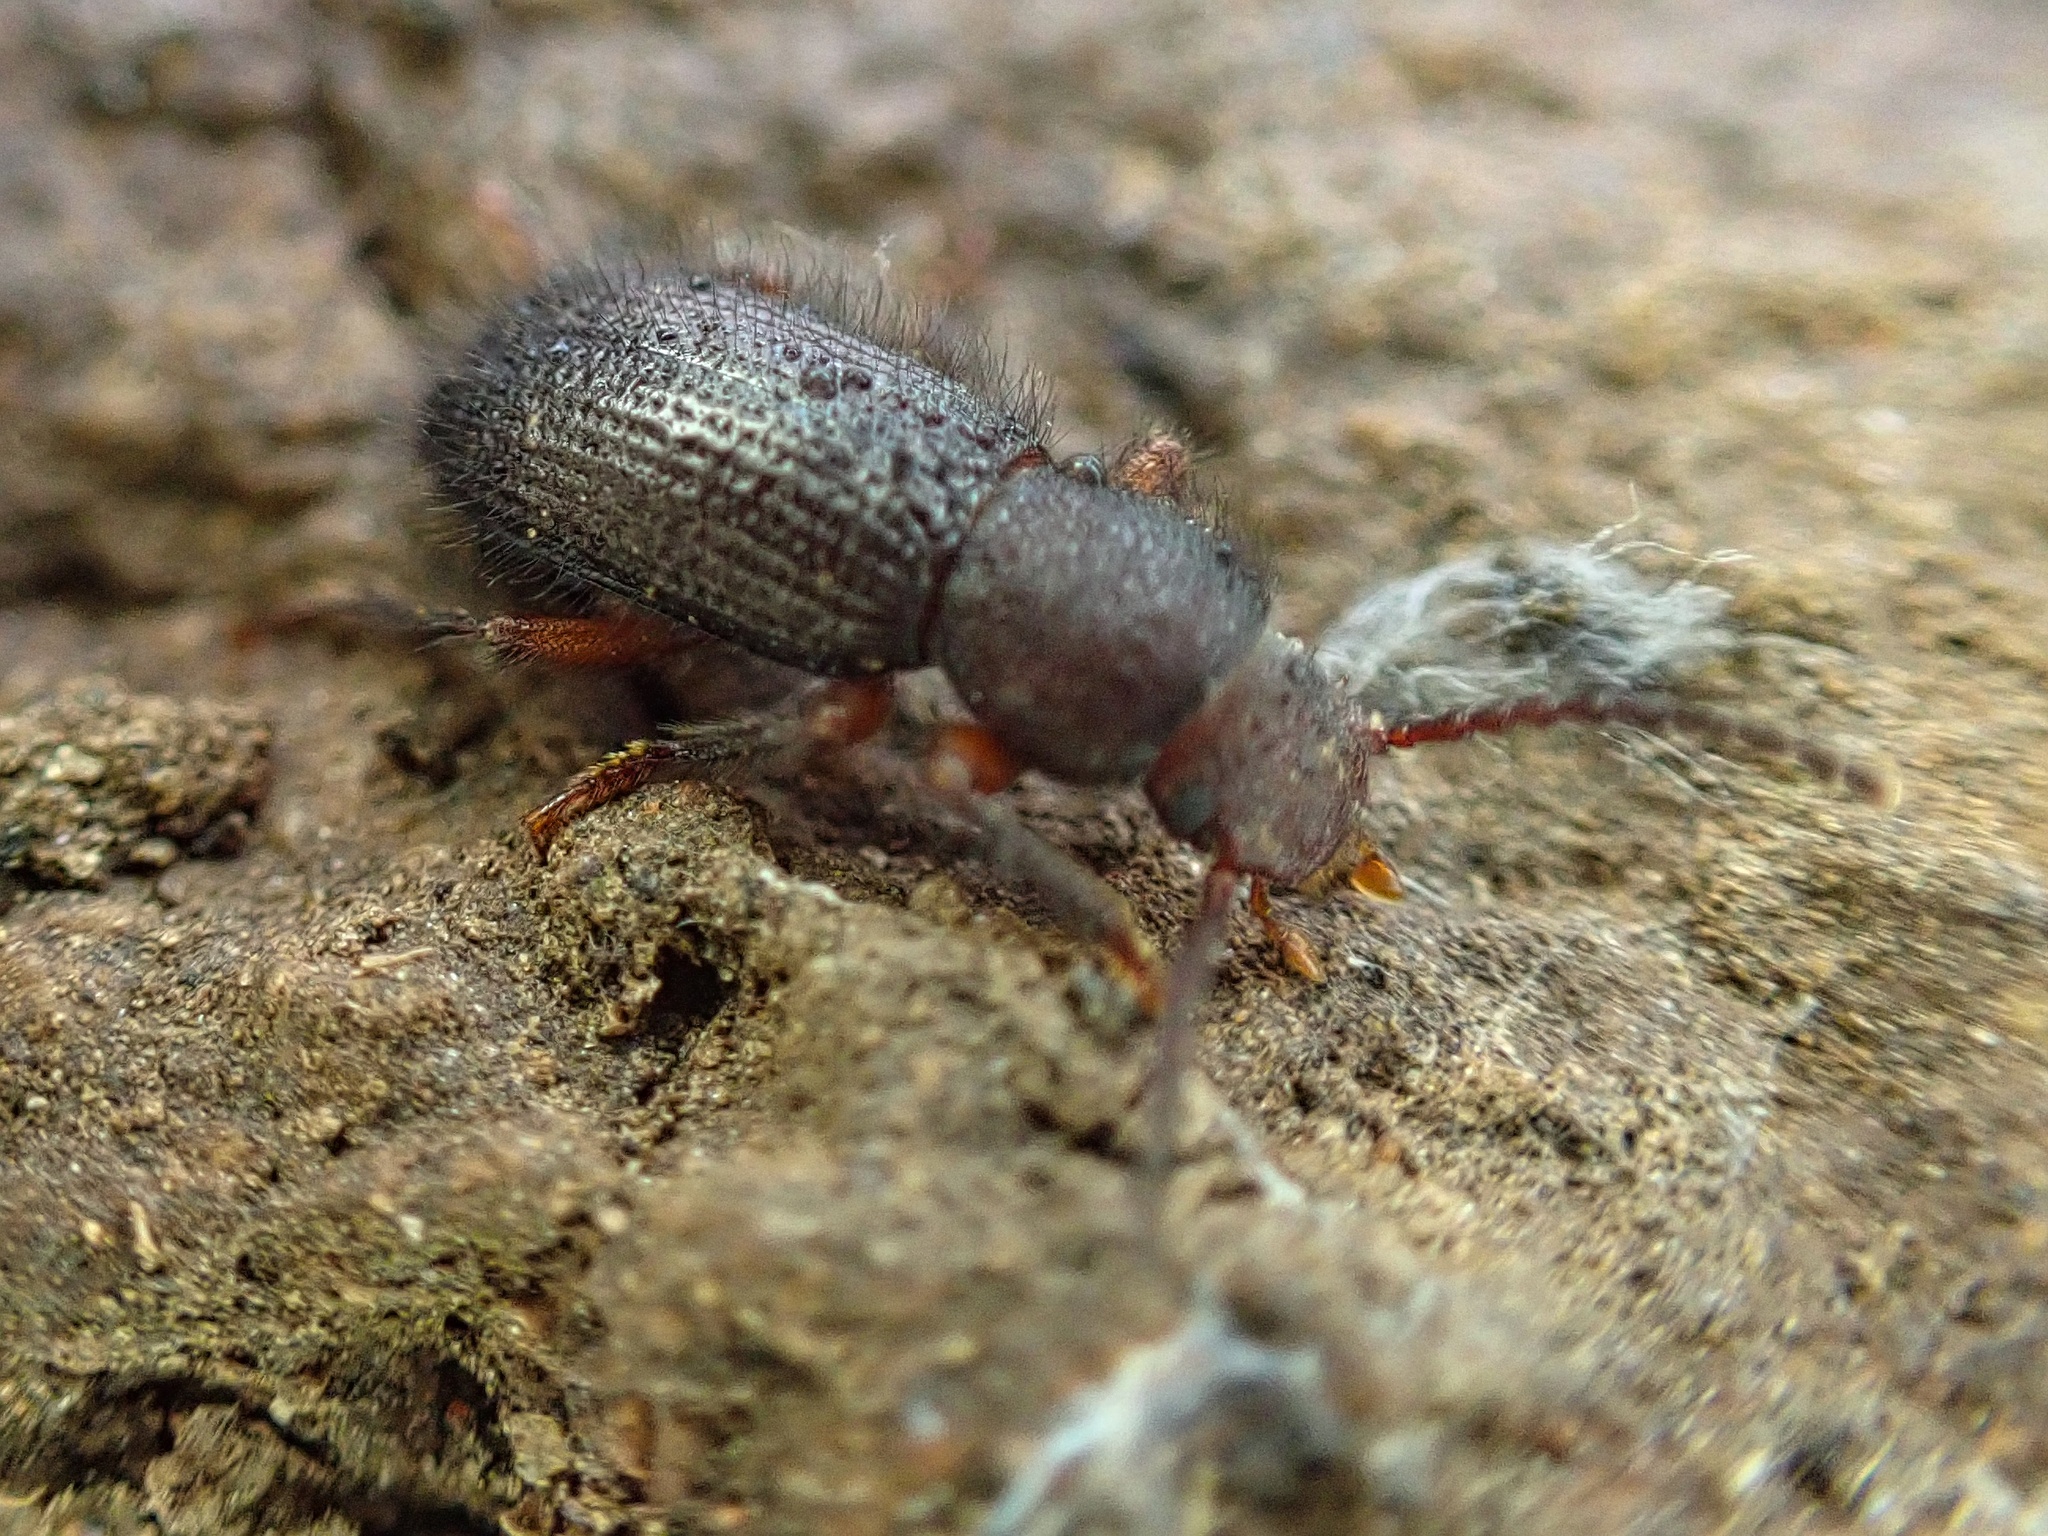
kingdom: Animalia
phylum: Arthropoda
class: Insecta
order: Coleoptera
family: Tenebrionidae
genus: Helops
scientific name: Helops confluens
